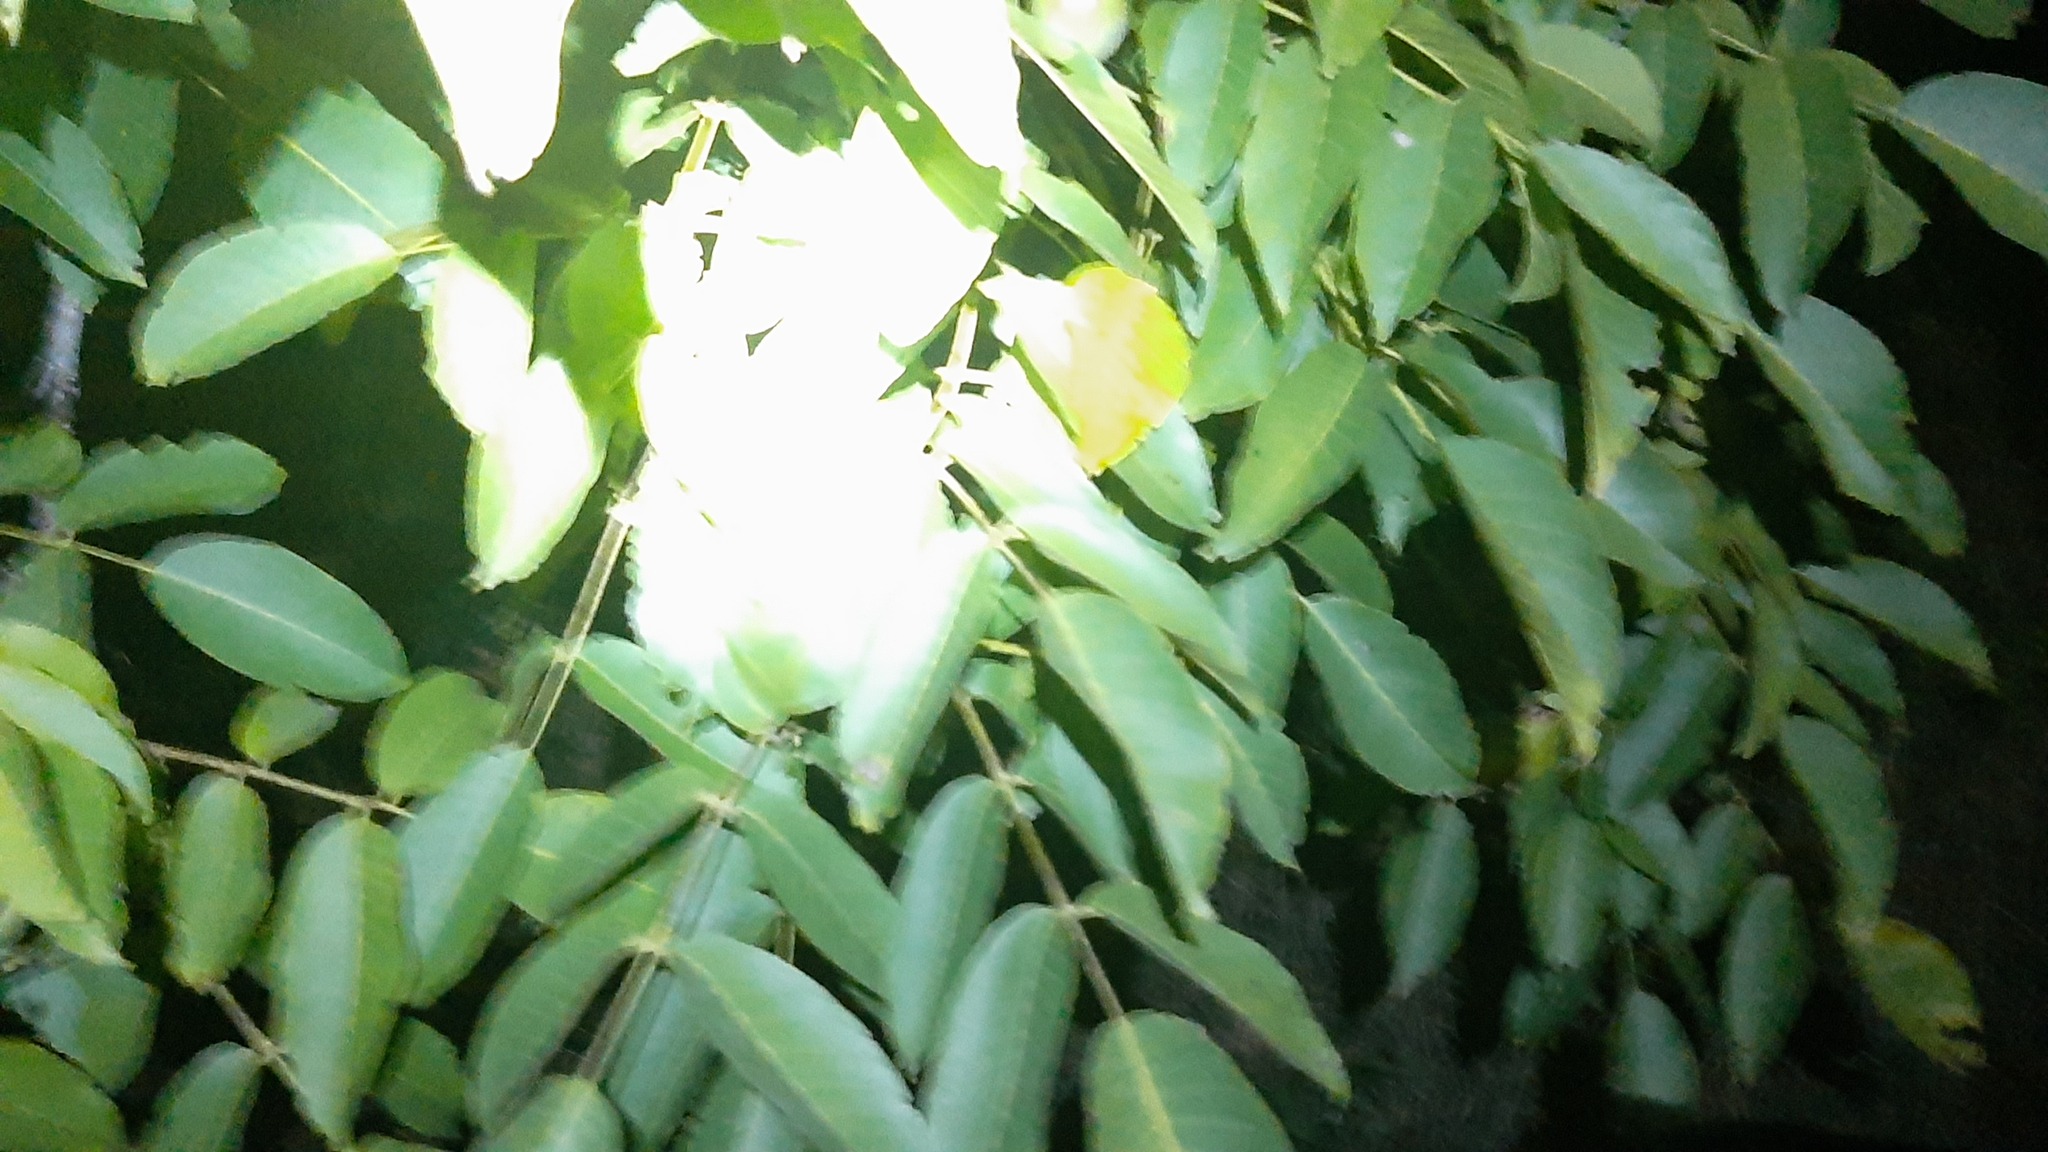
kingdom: Plantae
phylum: Tracheophyta
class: Magnoliopsida
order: Fagales
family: Juglandaceae
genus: Juglans
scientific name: Juglans regia
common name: Walnut
